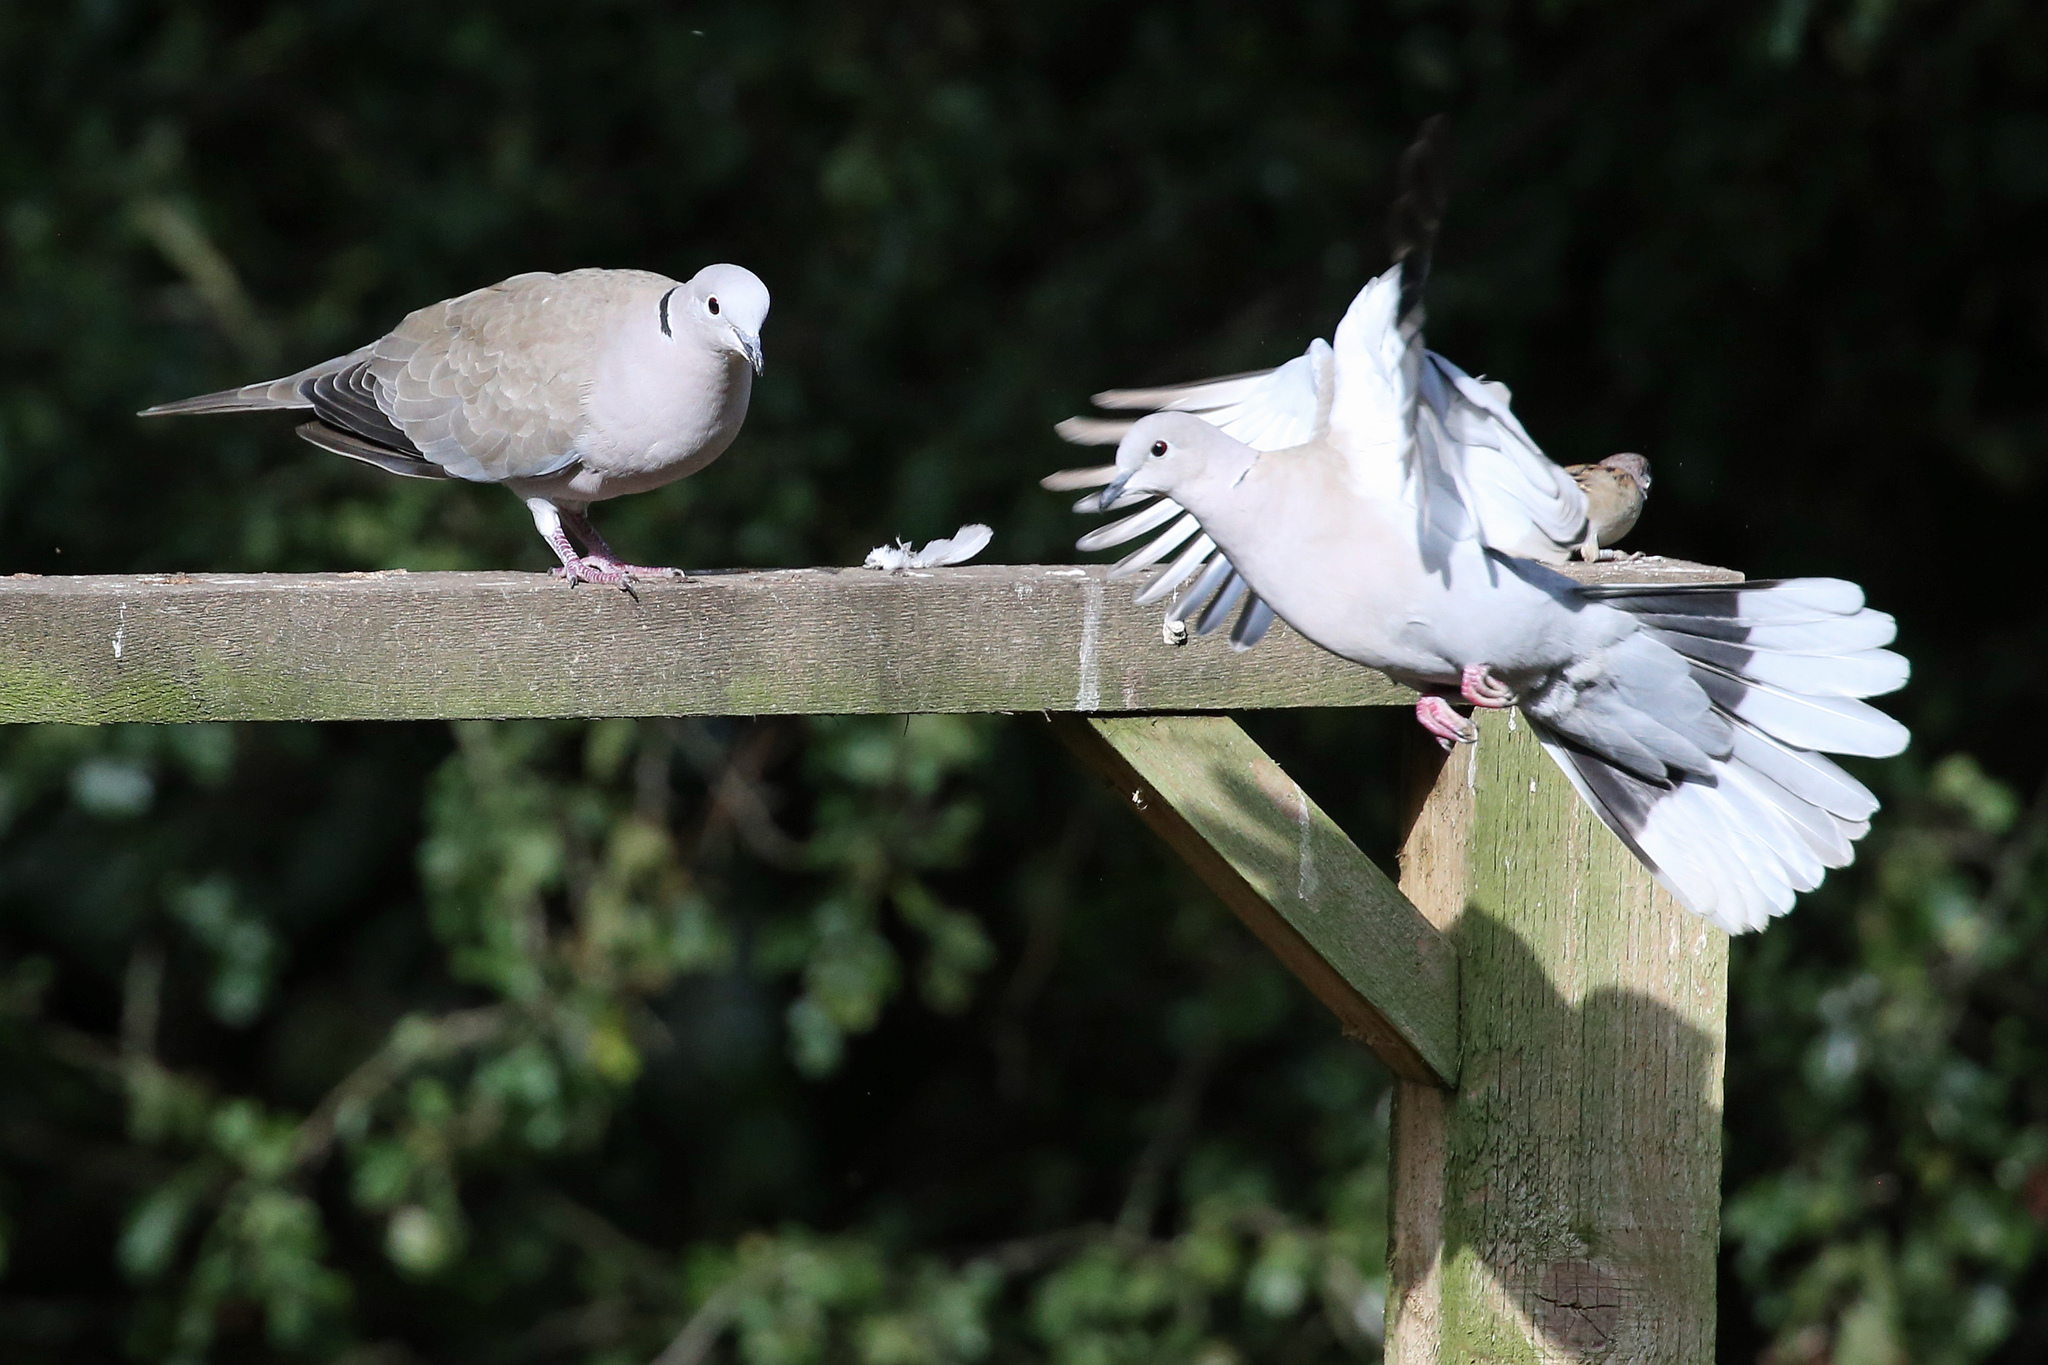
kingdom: Animalia
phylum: Chordata
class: Aves
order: Columbiformes
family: Columbidae
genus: Streptopelia
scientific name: Streptopelia decaocto
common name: Eurasian collared dove
